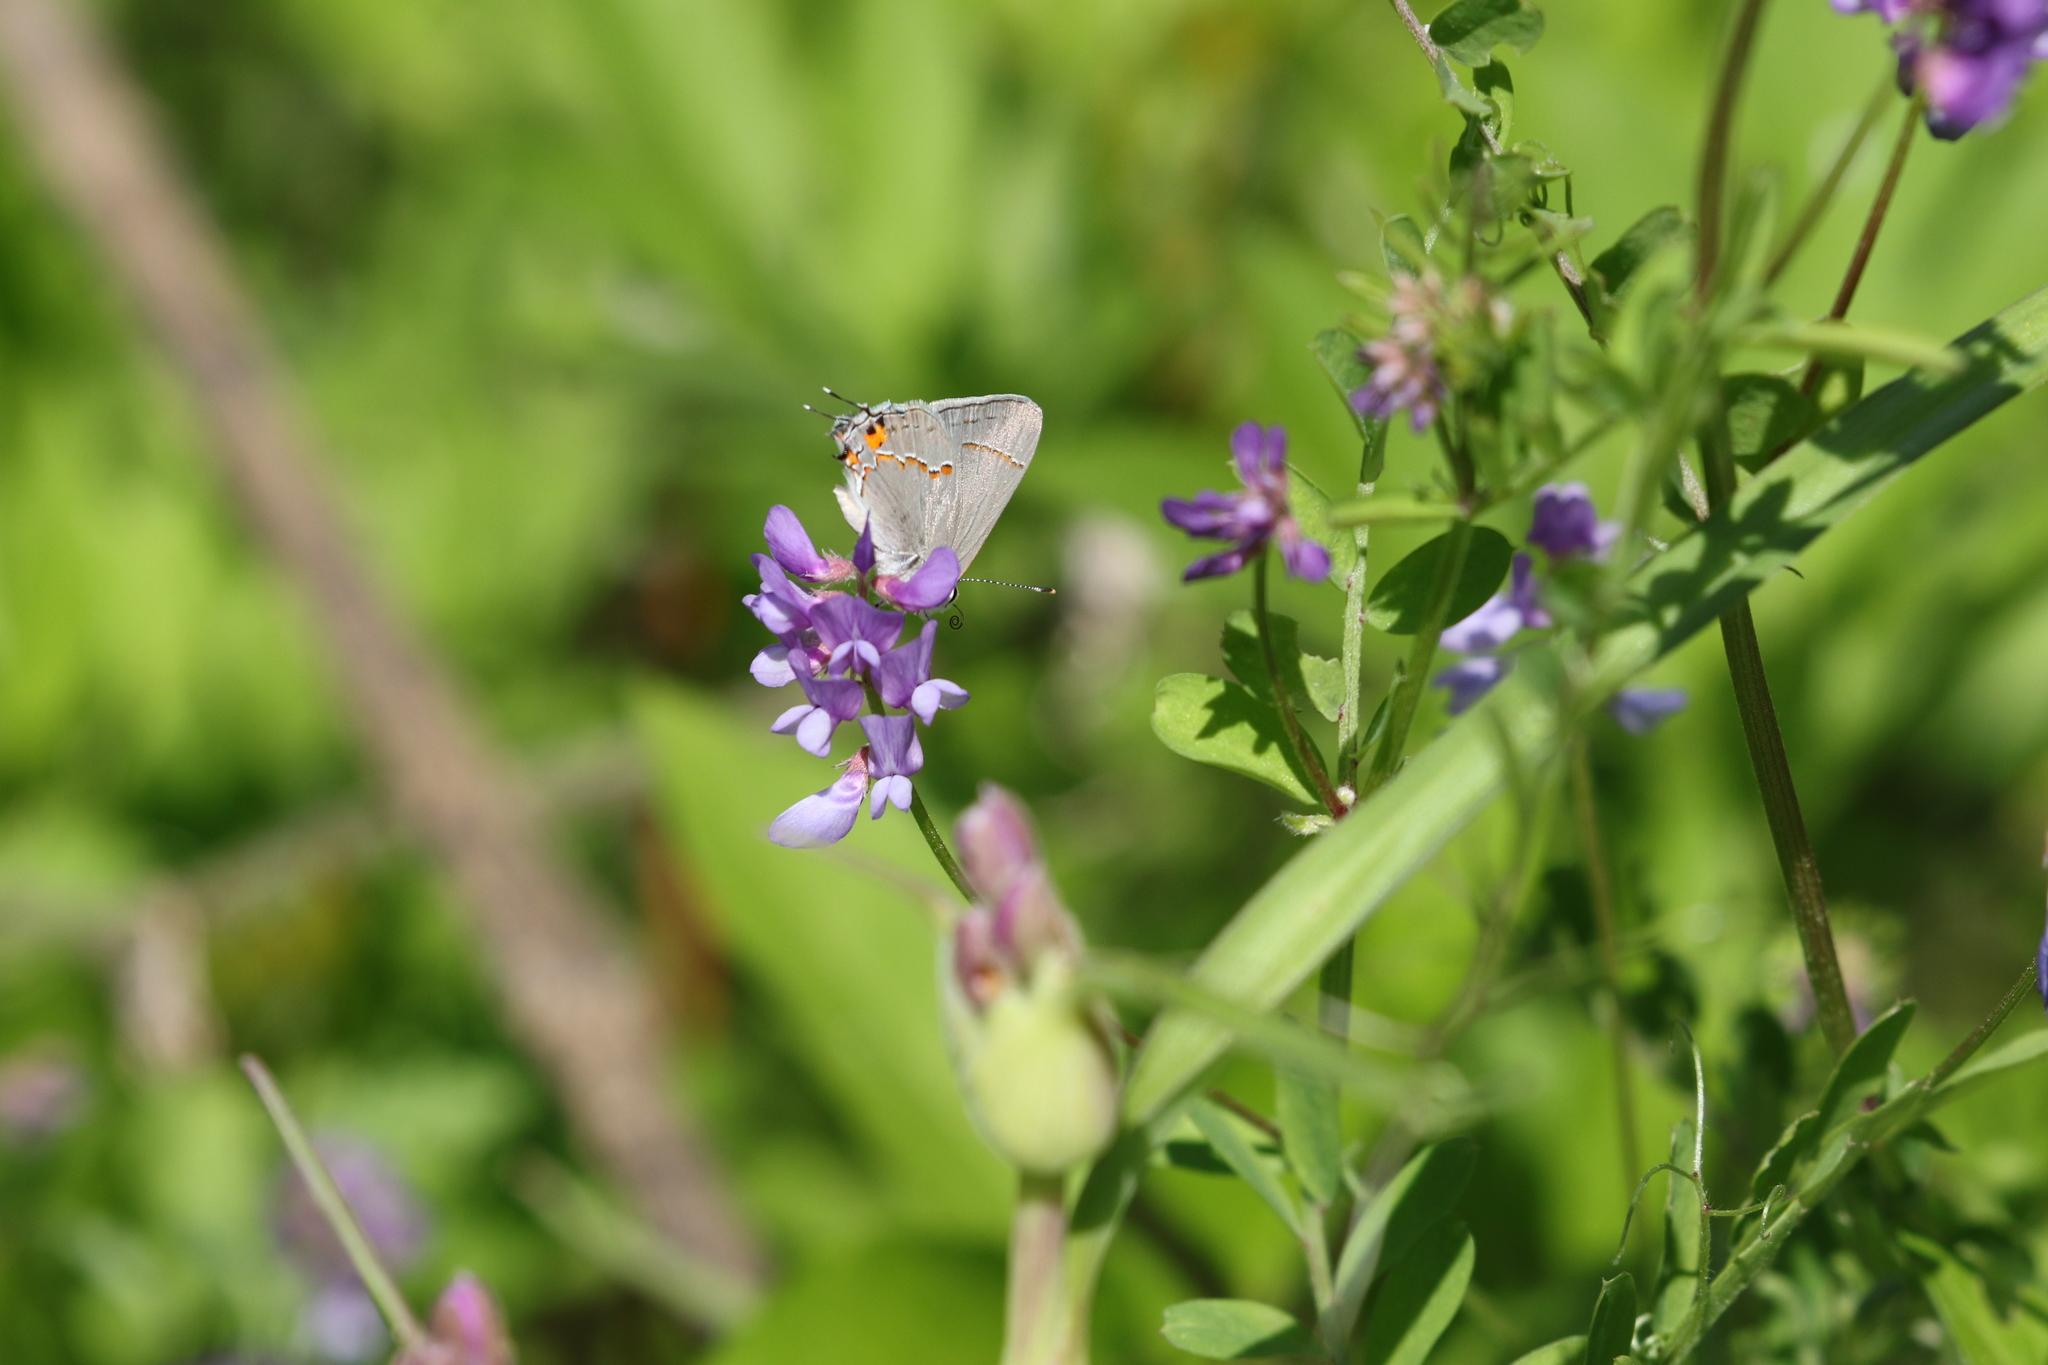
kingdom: Animalia
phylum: Arthropoda
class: Insecta
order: Lepidoptera
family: Lycaenidae
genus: Strymon
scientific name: Strymon melinus
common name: Gray hairstreak
